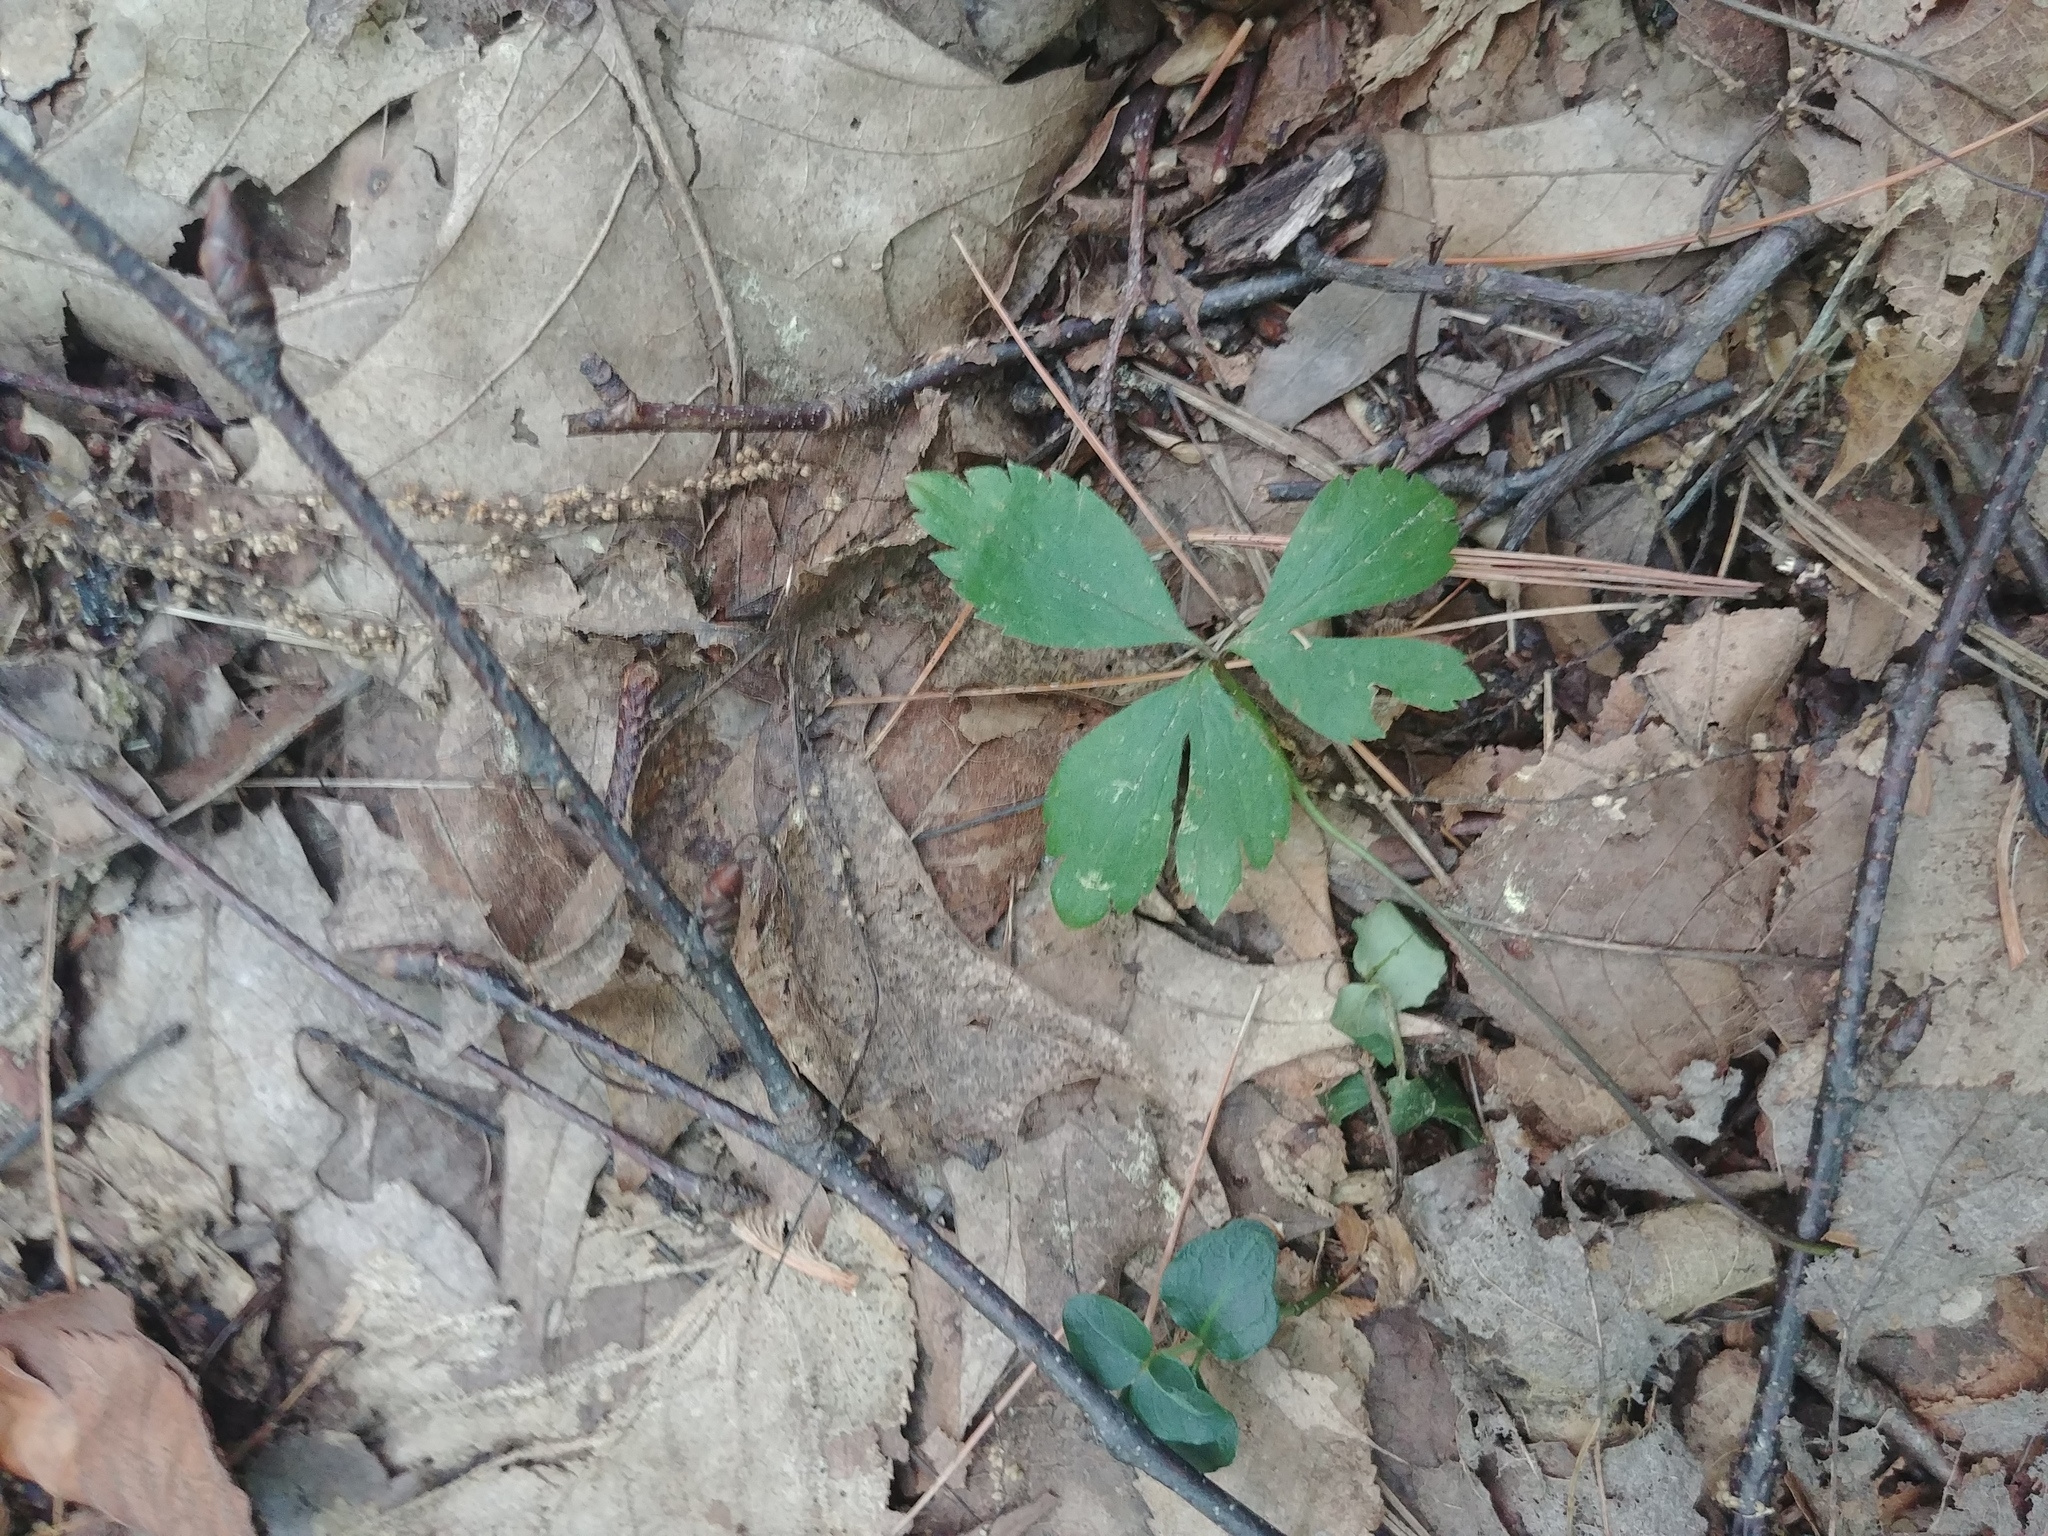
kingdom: Plantae
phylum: Tracheophyta
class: Magnoliopsida
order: Ranunculales
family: Ranunculaceae
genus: Anemone
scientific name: Anemone quinquefolia
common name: Wood anemone
